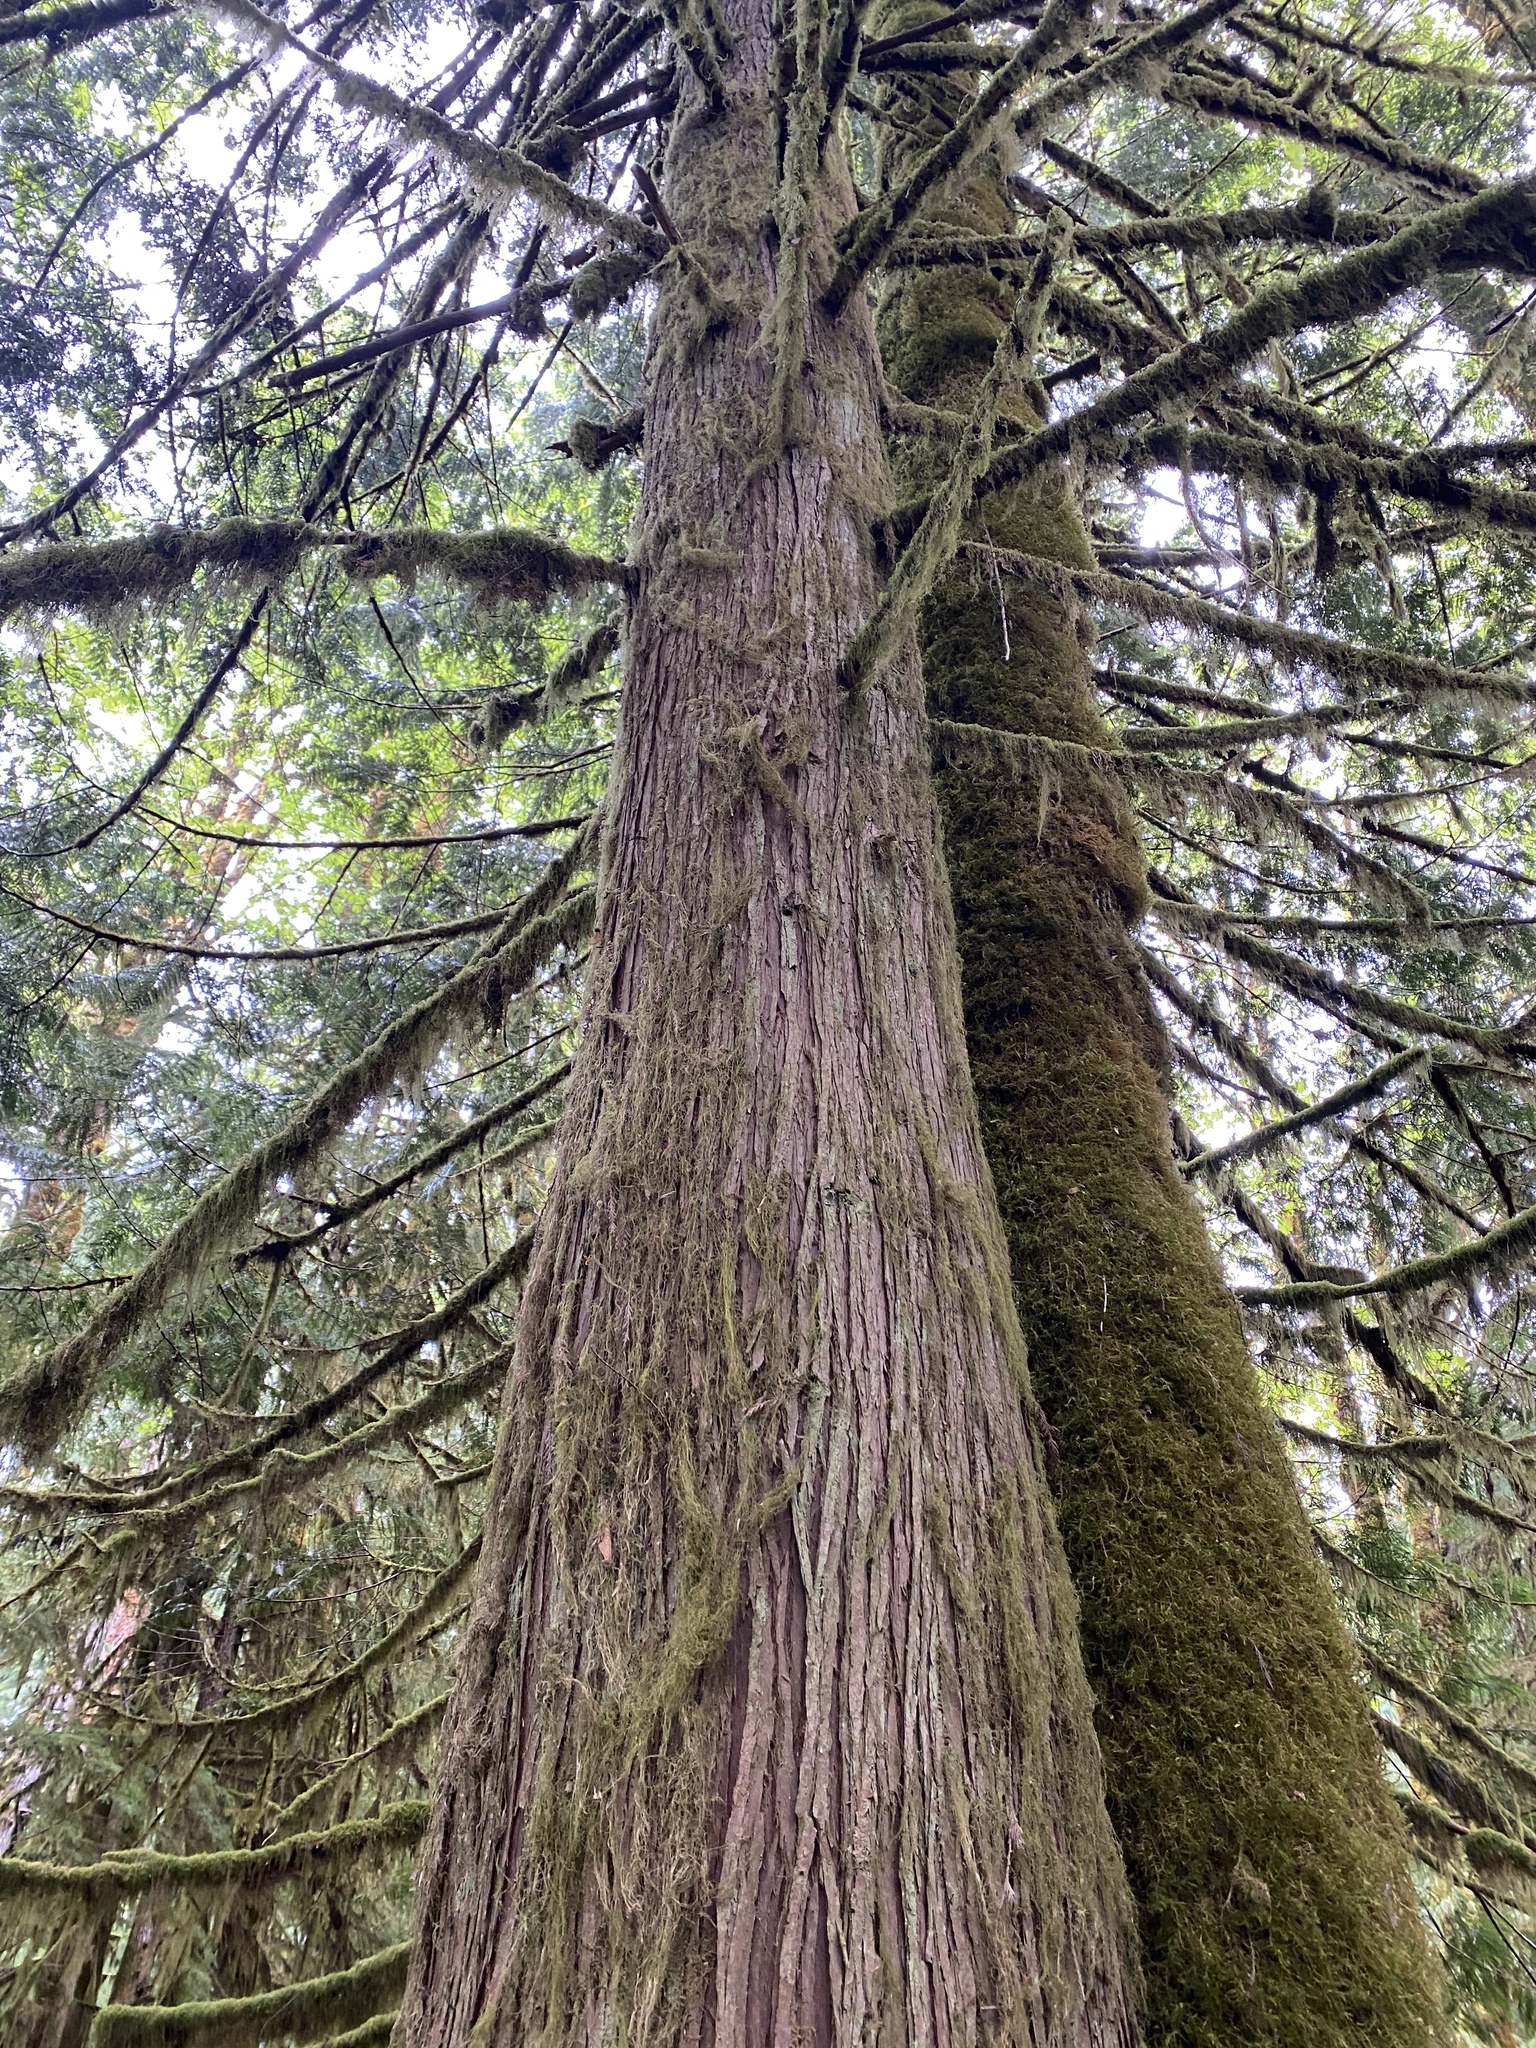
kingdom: Plantae
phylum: Tracheophyta
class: Pinopsida
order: Pinales
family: Cupressaceae
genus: Thuja
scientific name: Thuja plicata
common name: Western red-cedar
